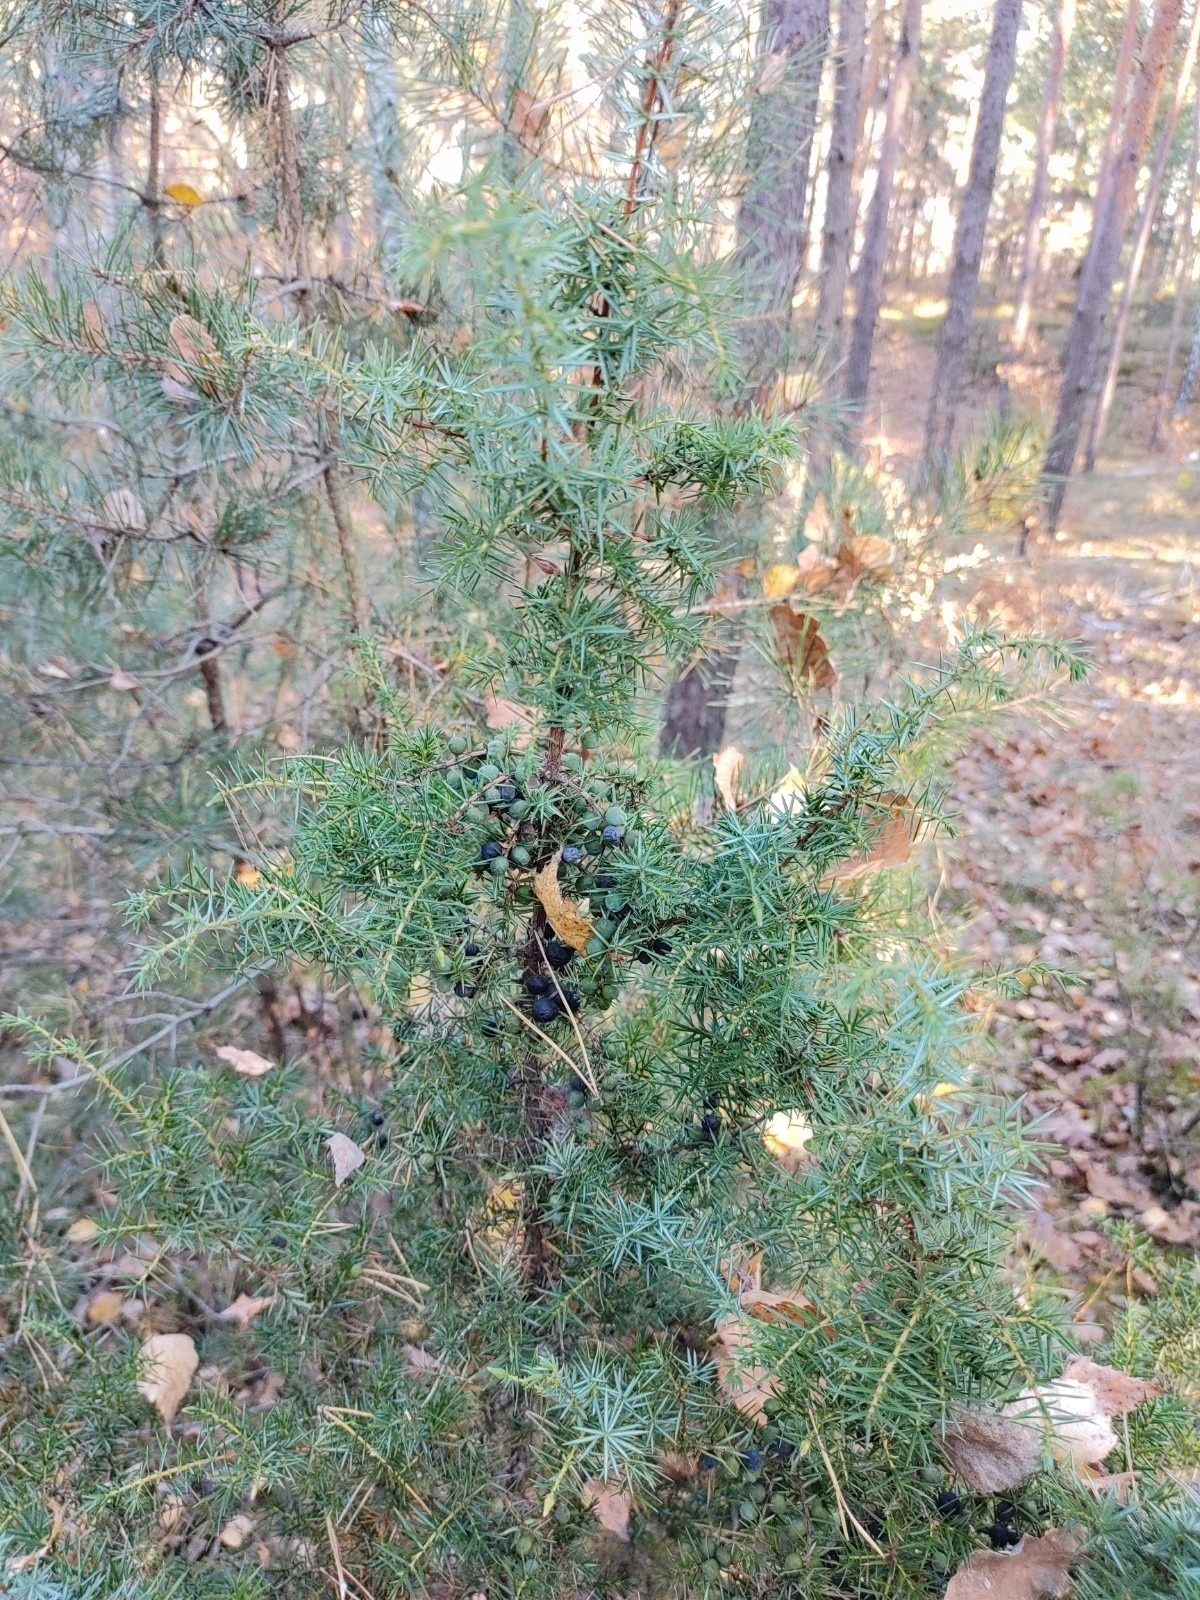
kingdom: Plantae
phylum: Tracheophyta
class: Pinopsida
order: Pinales
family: Cupressaceae
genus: Juniperus
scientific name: Juniperus communis
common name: Common juniper
